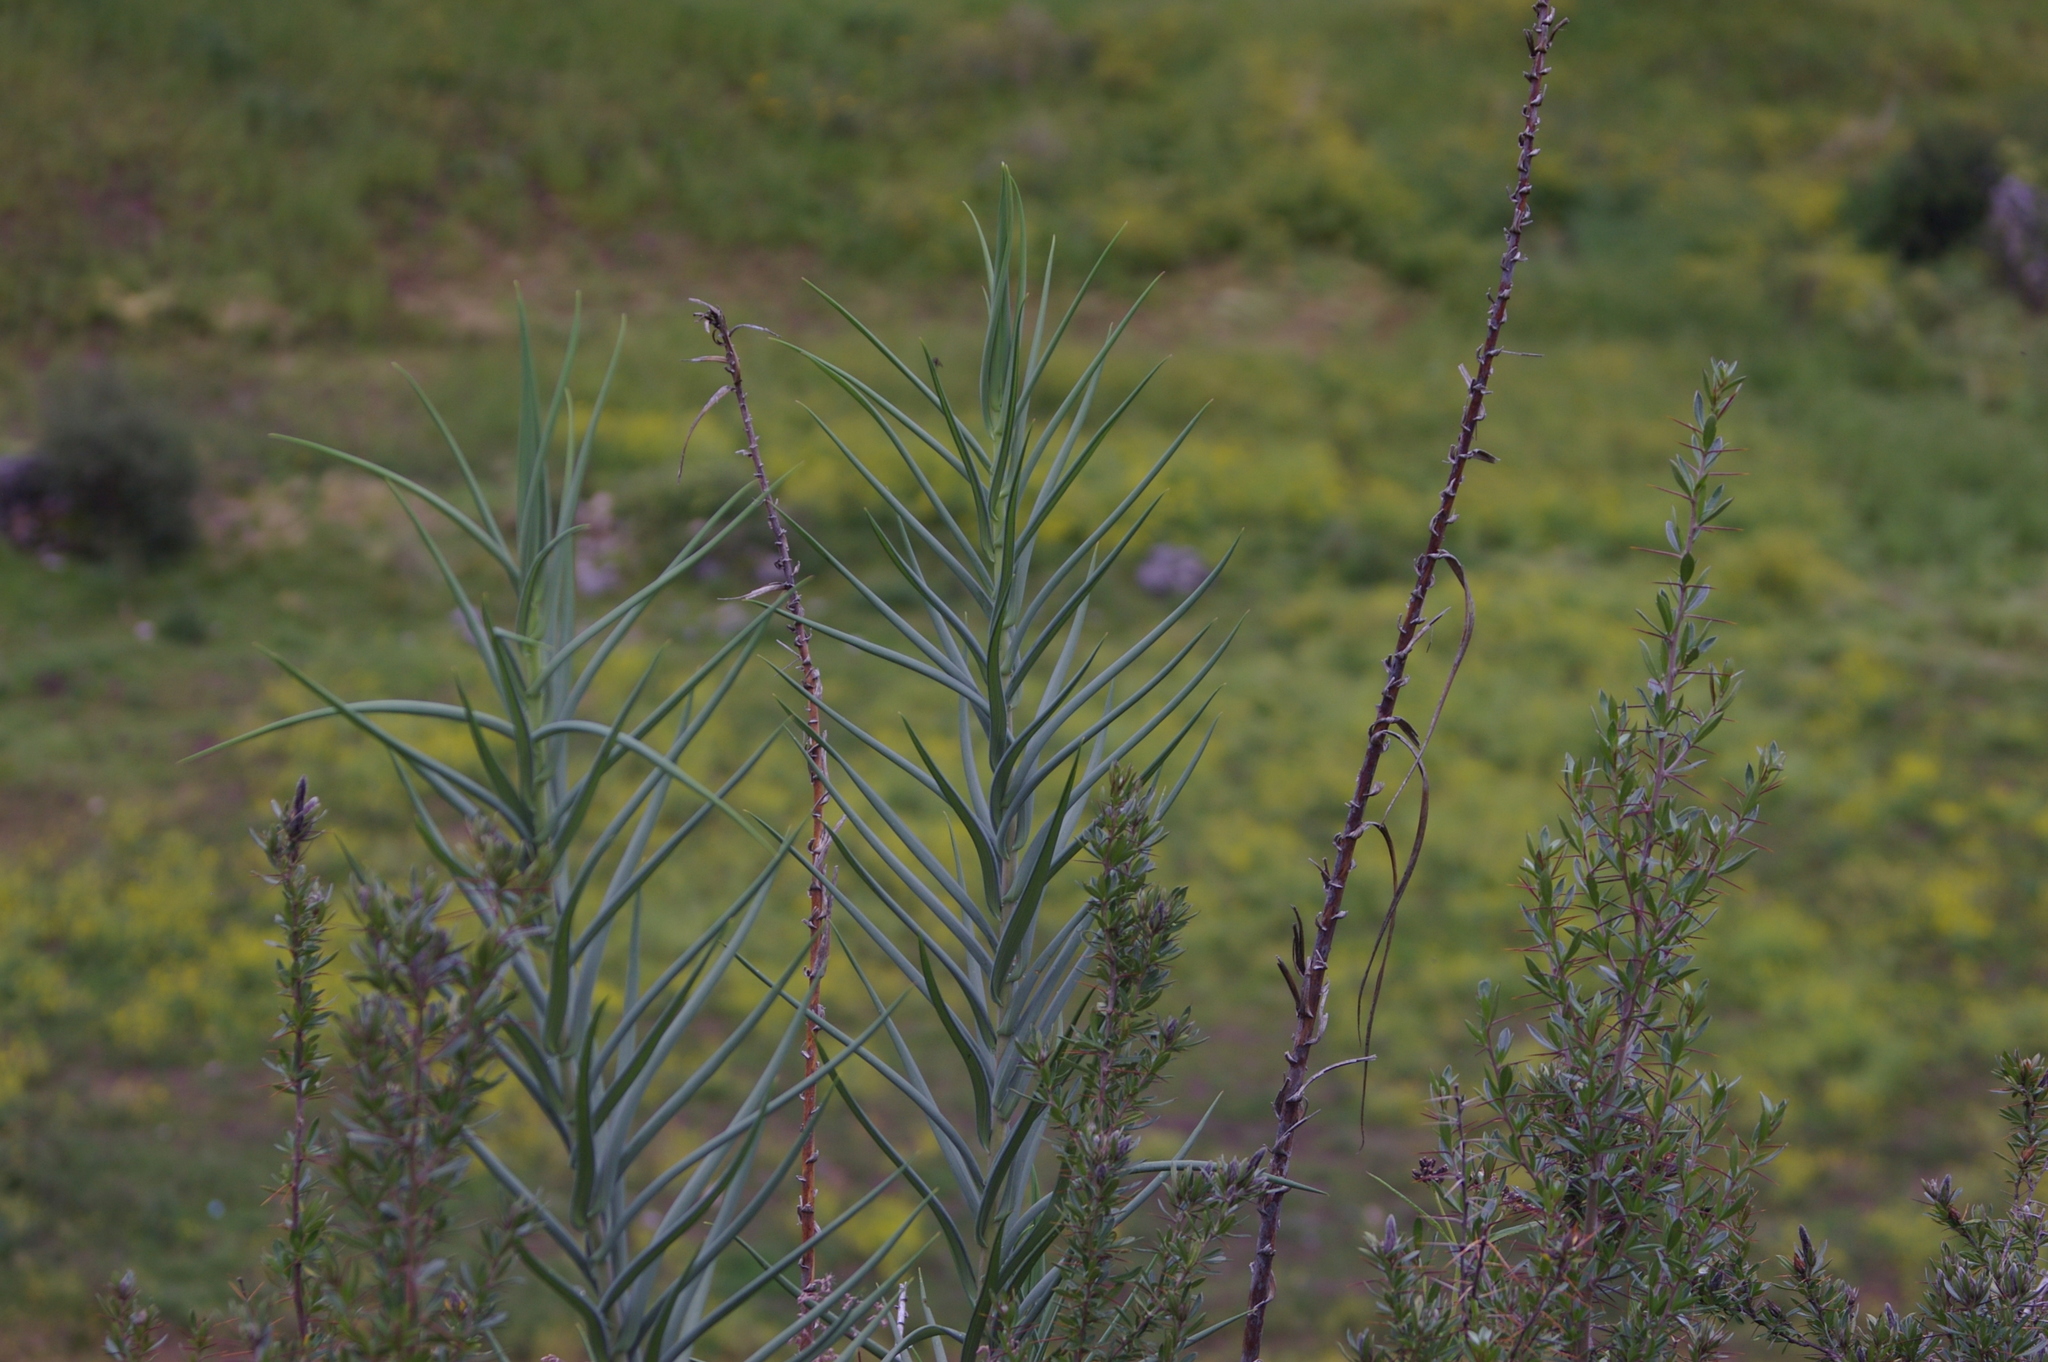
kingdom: Plantae
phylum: Tracheophyta
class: Liliopsida
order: Liliales
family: Alstroemeriaceae
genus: Bomarea
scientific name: Bomarea involucrosa
